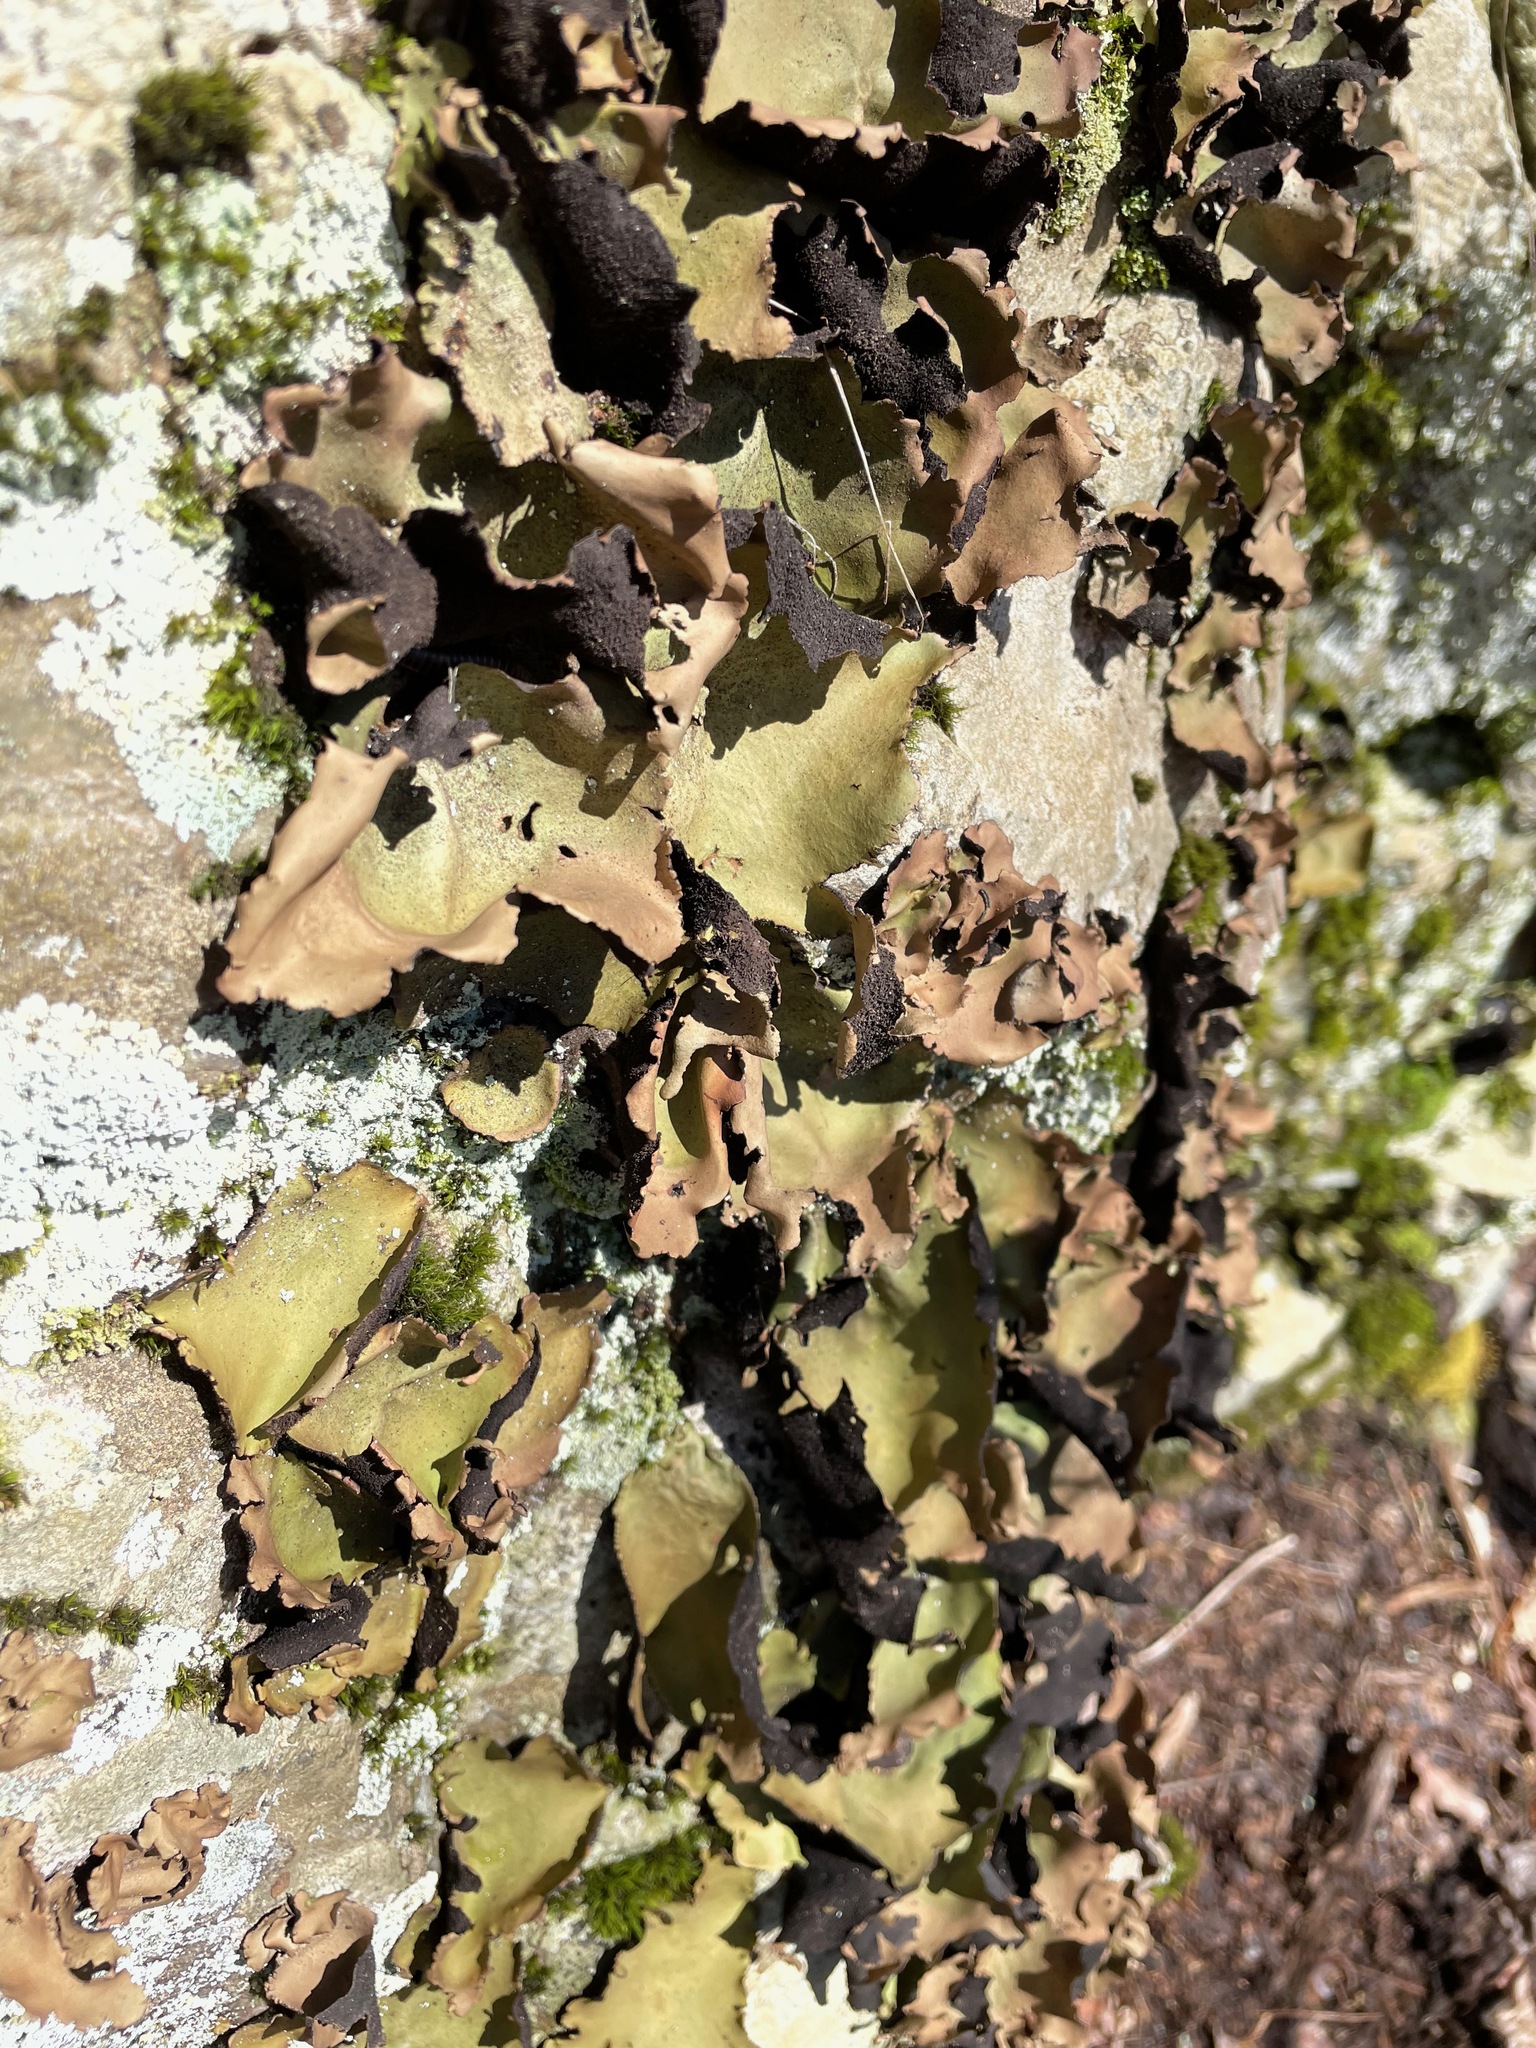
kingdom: Fungi
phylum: Ascomycota
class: Lecanoromycetes
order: Umbilicariales
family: Umbilicariaceae
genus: Umbilicaria
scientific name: Umbilicaria mammulata
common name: Smooth rock tripe
